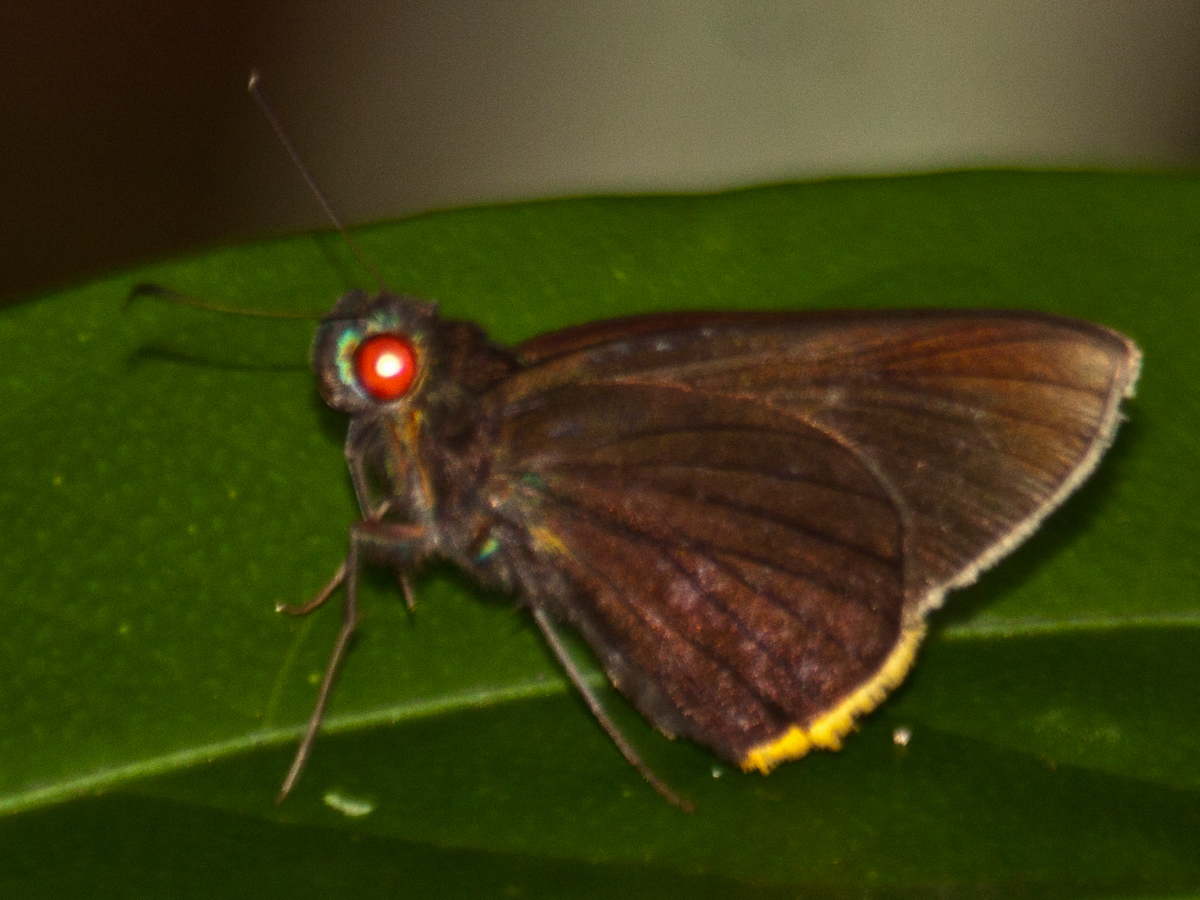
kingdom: Animalia
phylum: Arthropoda
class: Insecta
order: Lepidoptera
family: Hesperiidae
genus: Matapa
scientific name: Matapa sasivarna
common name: Black-veined redeye
